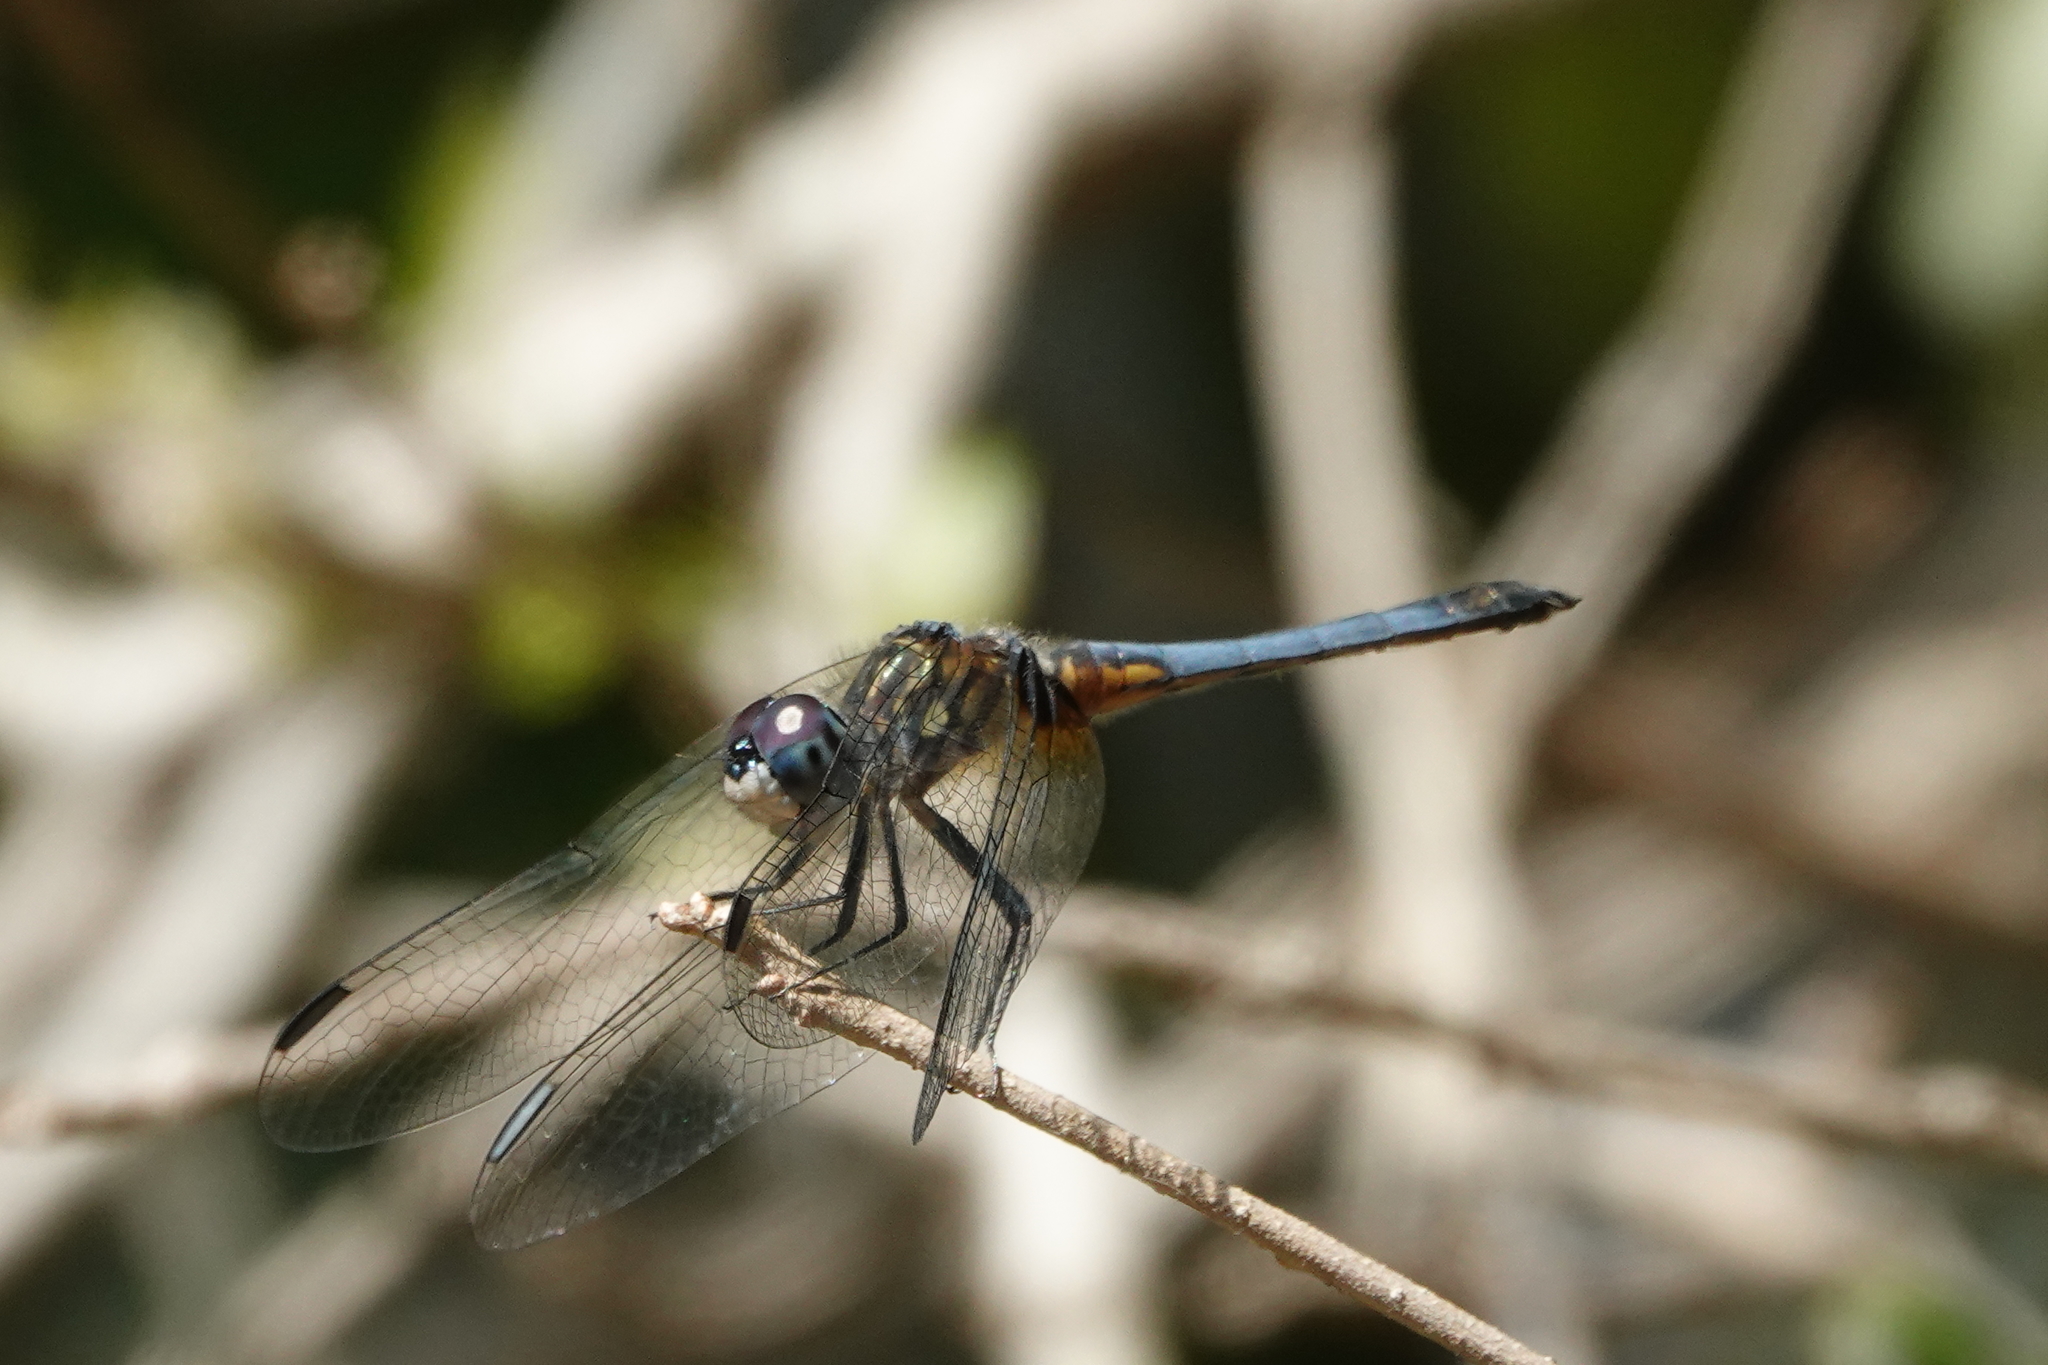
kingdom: Animalia
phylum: Arthropoda
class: Insecta
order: Odonata
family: Libellulidae
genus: Pachydiplax
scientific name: Pachydiplax longipennis
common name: Blue dasher
